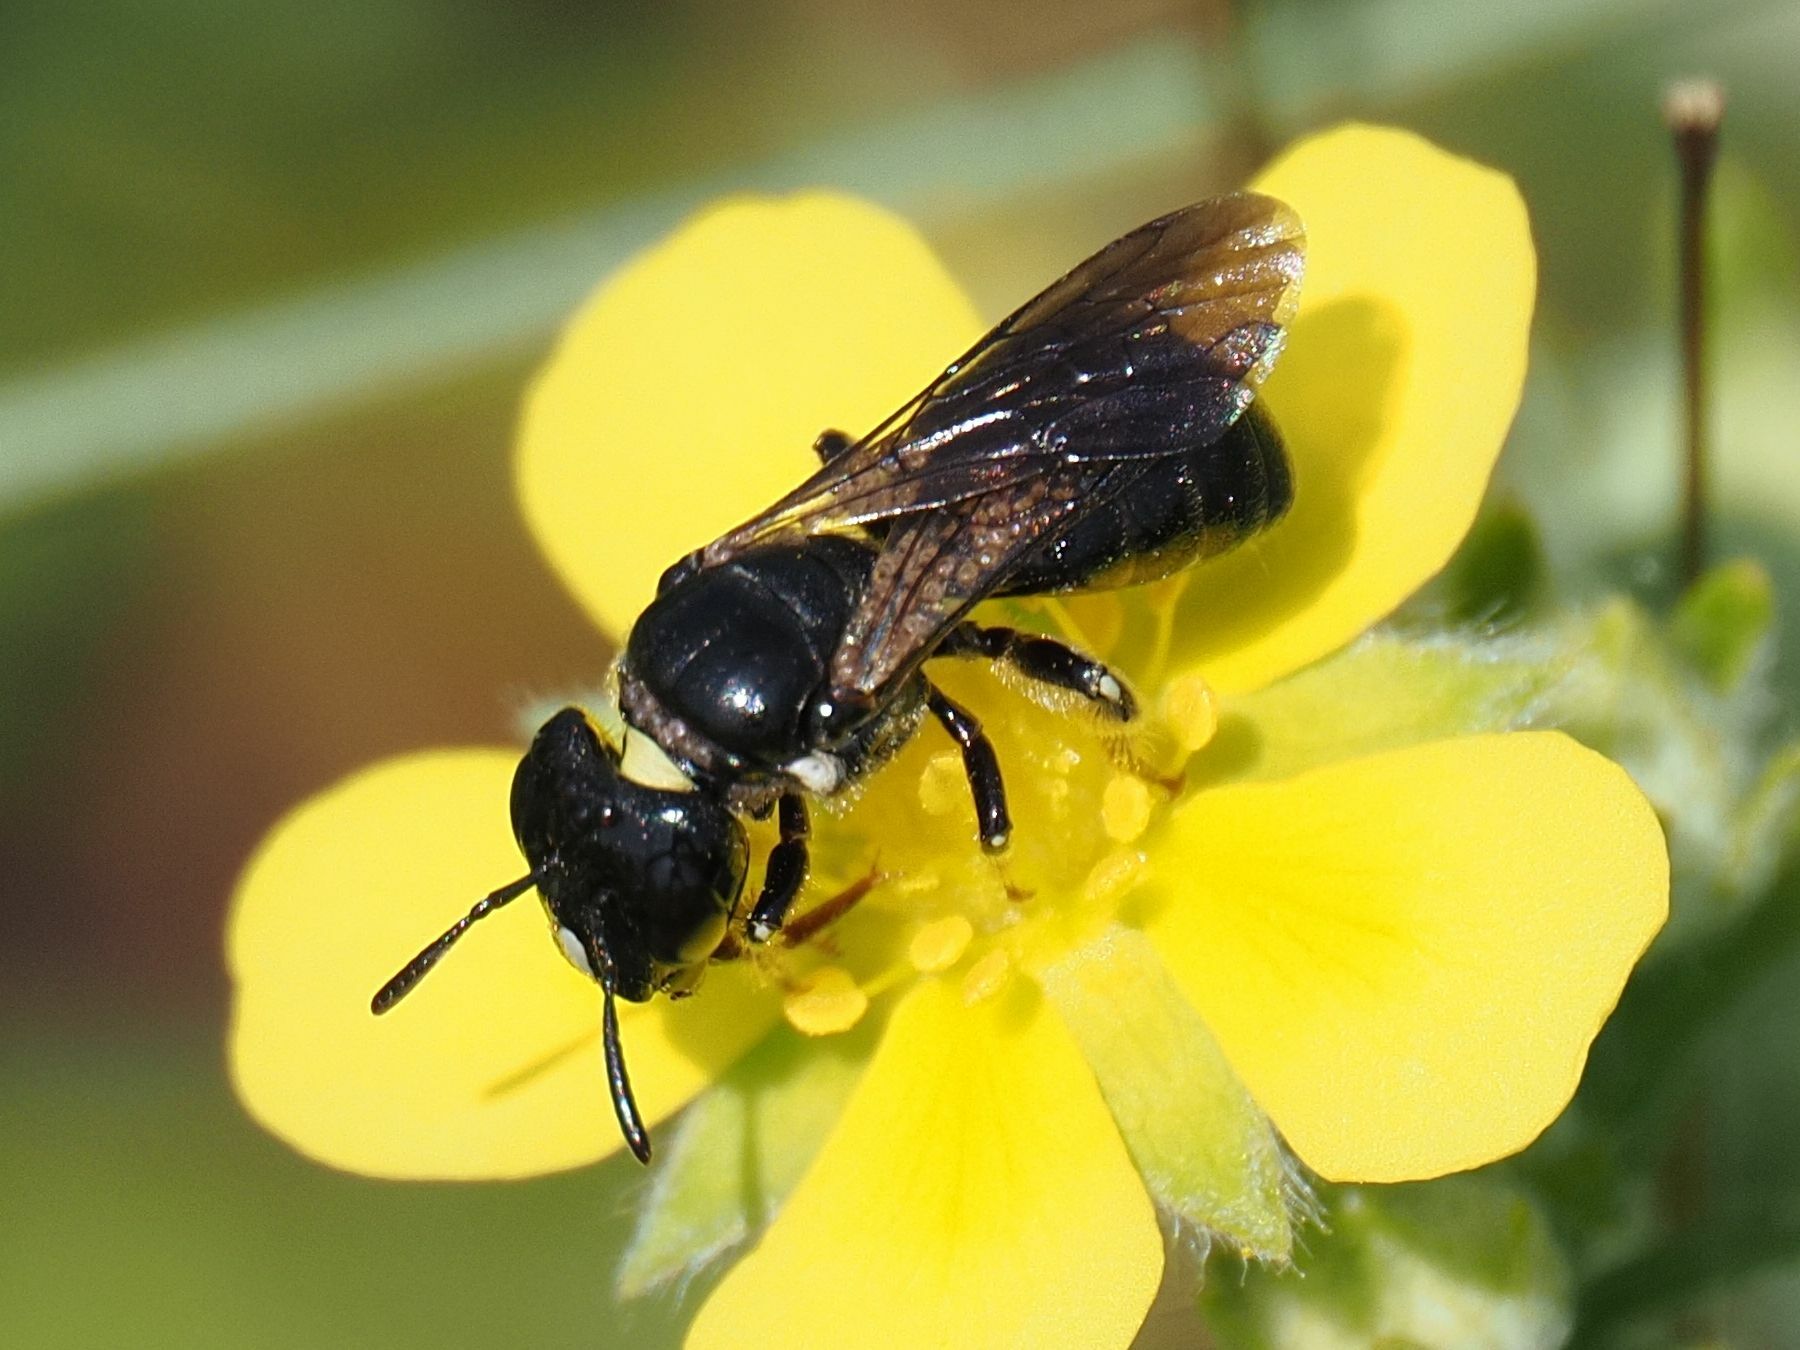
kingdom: Animalia
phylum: Arthropoda
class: Insecta
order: Hymenoptera
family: Apidae
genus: Ceratina
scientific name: Ceratina cucurbitina
